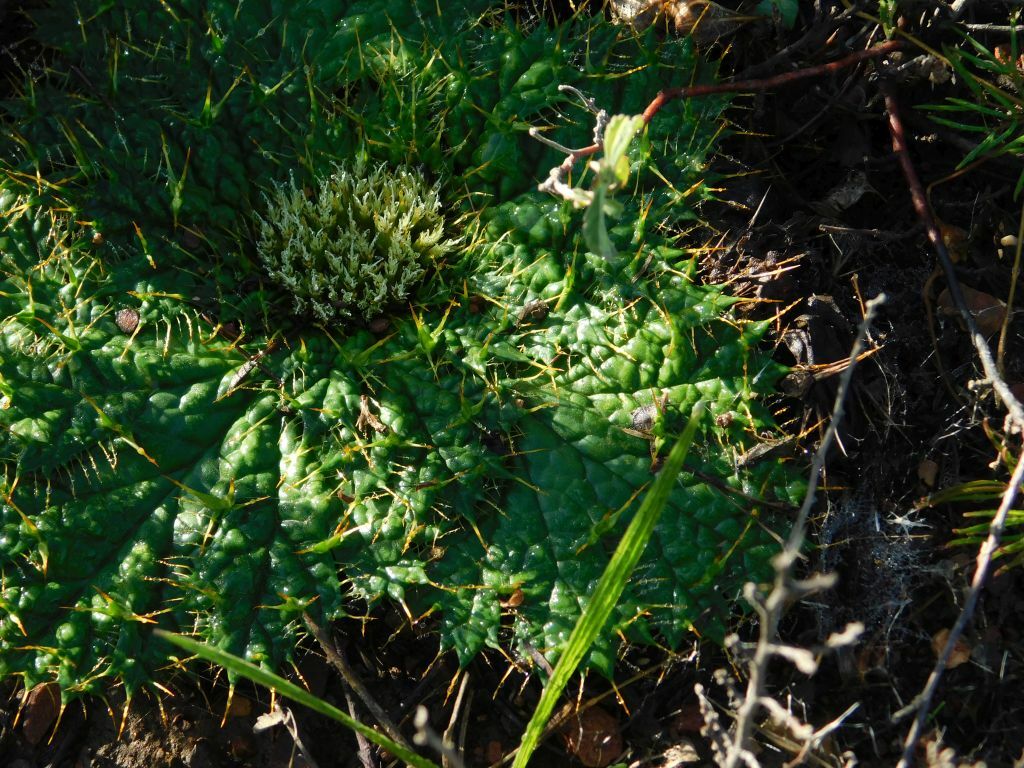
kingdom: Plantae
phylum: Tracheophyta
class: Magnoliopsida
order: Apiales
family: Apiaceae
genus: Arctopus
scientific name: Arctopus echinatus
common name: Platdoring
